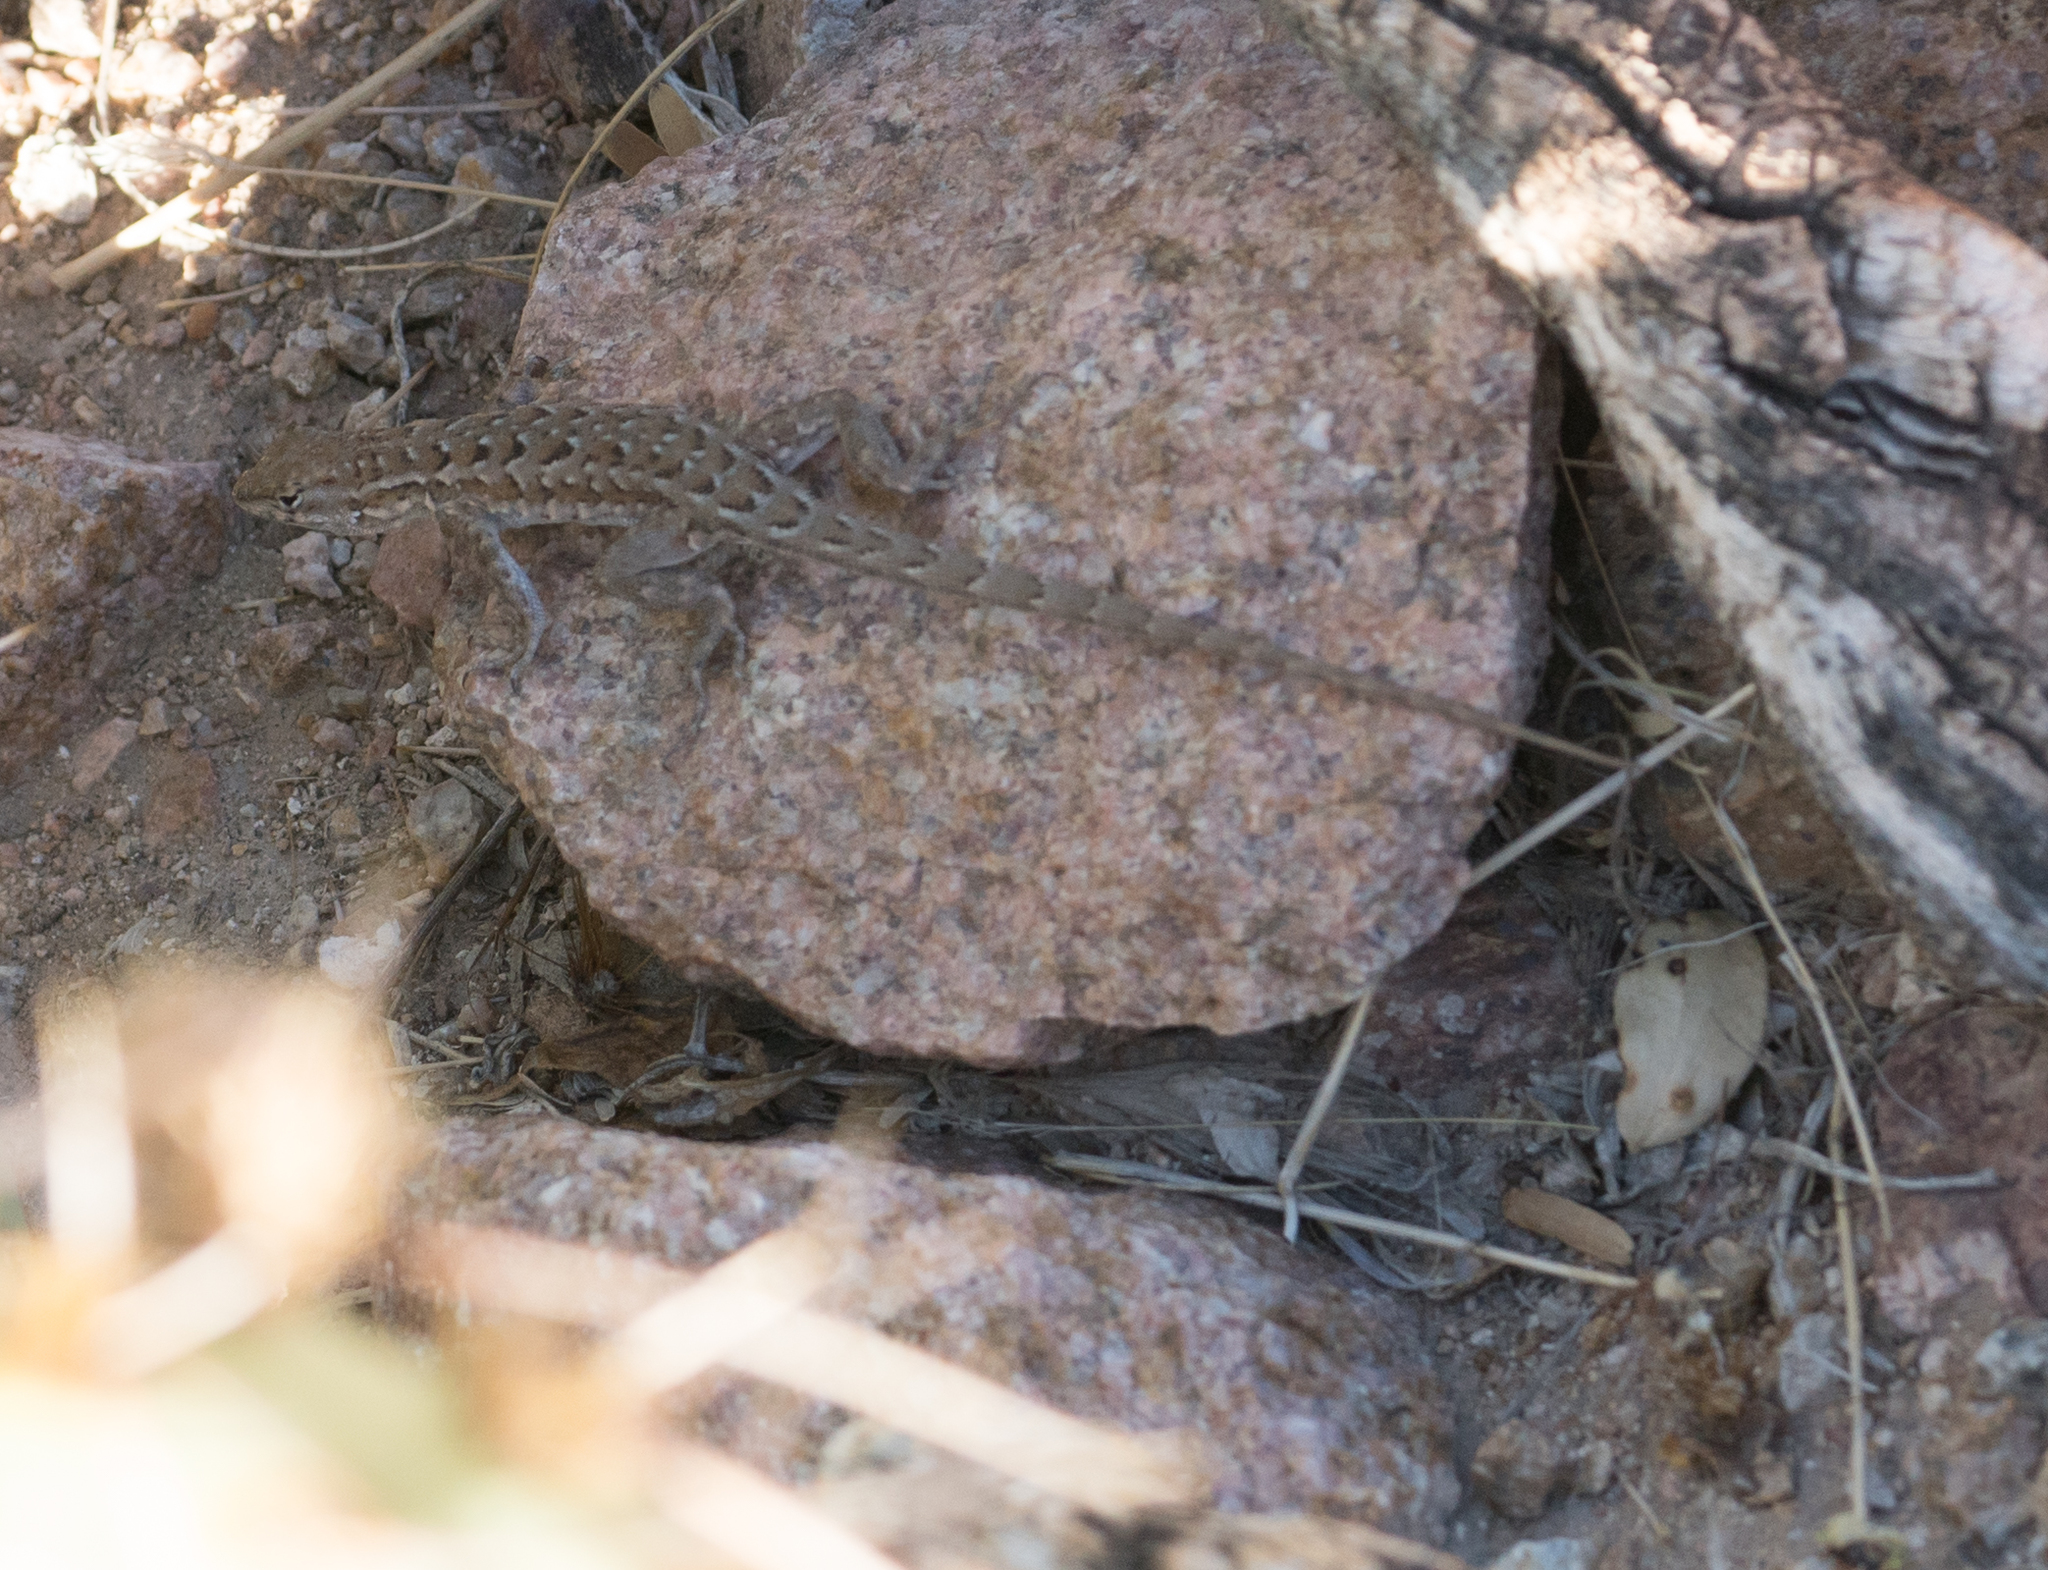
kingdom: Animalia
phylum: Chordata
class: Squamata
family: Phrynosomatidae
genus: Uta
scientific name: Uta stansburiana
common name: Side-blotched lizard
